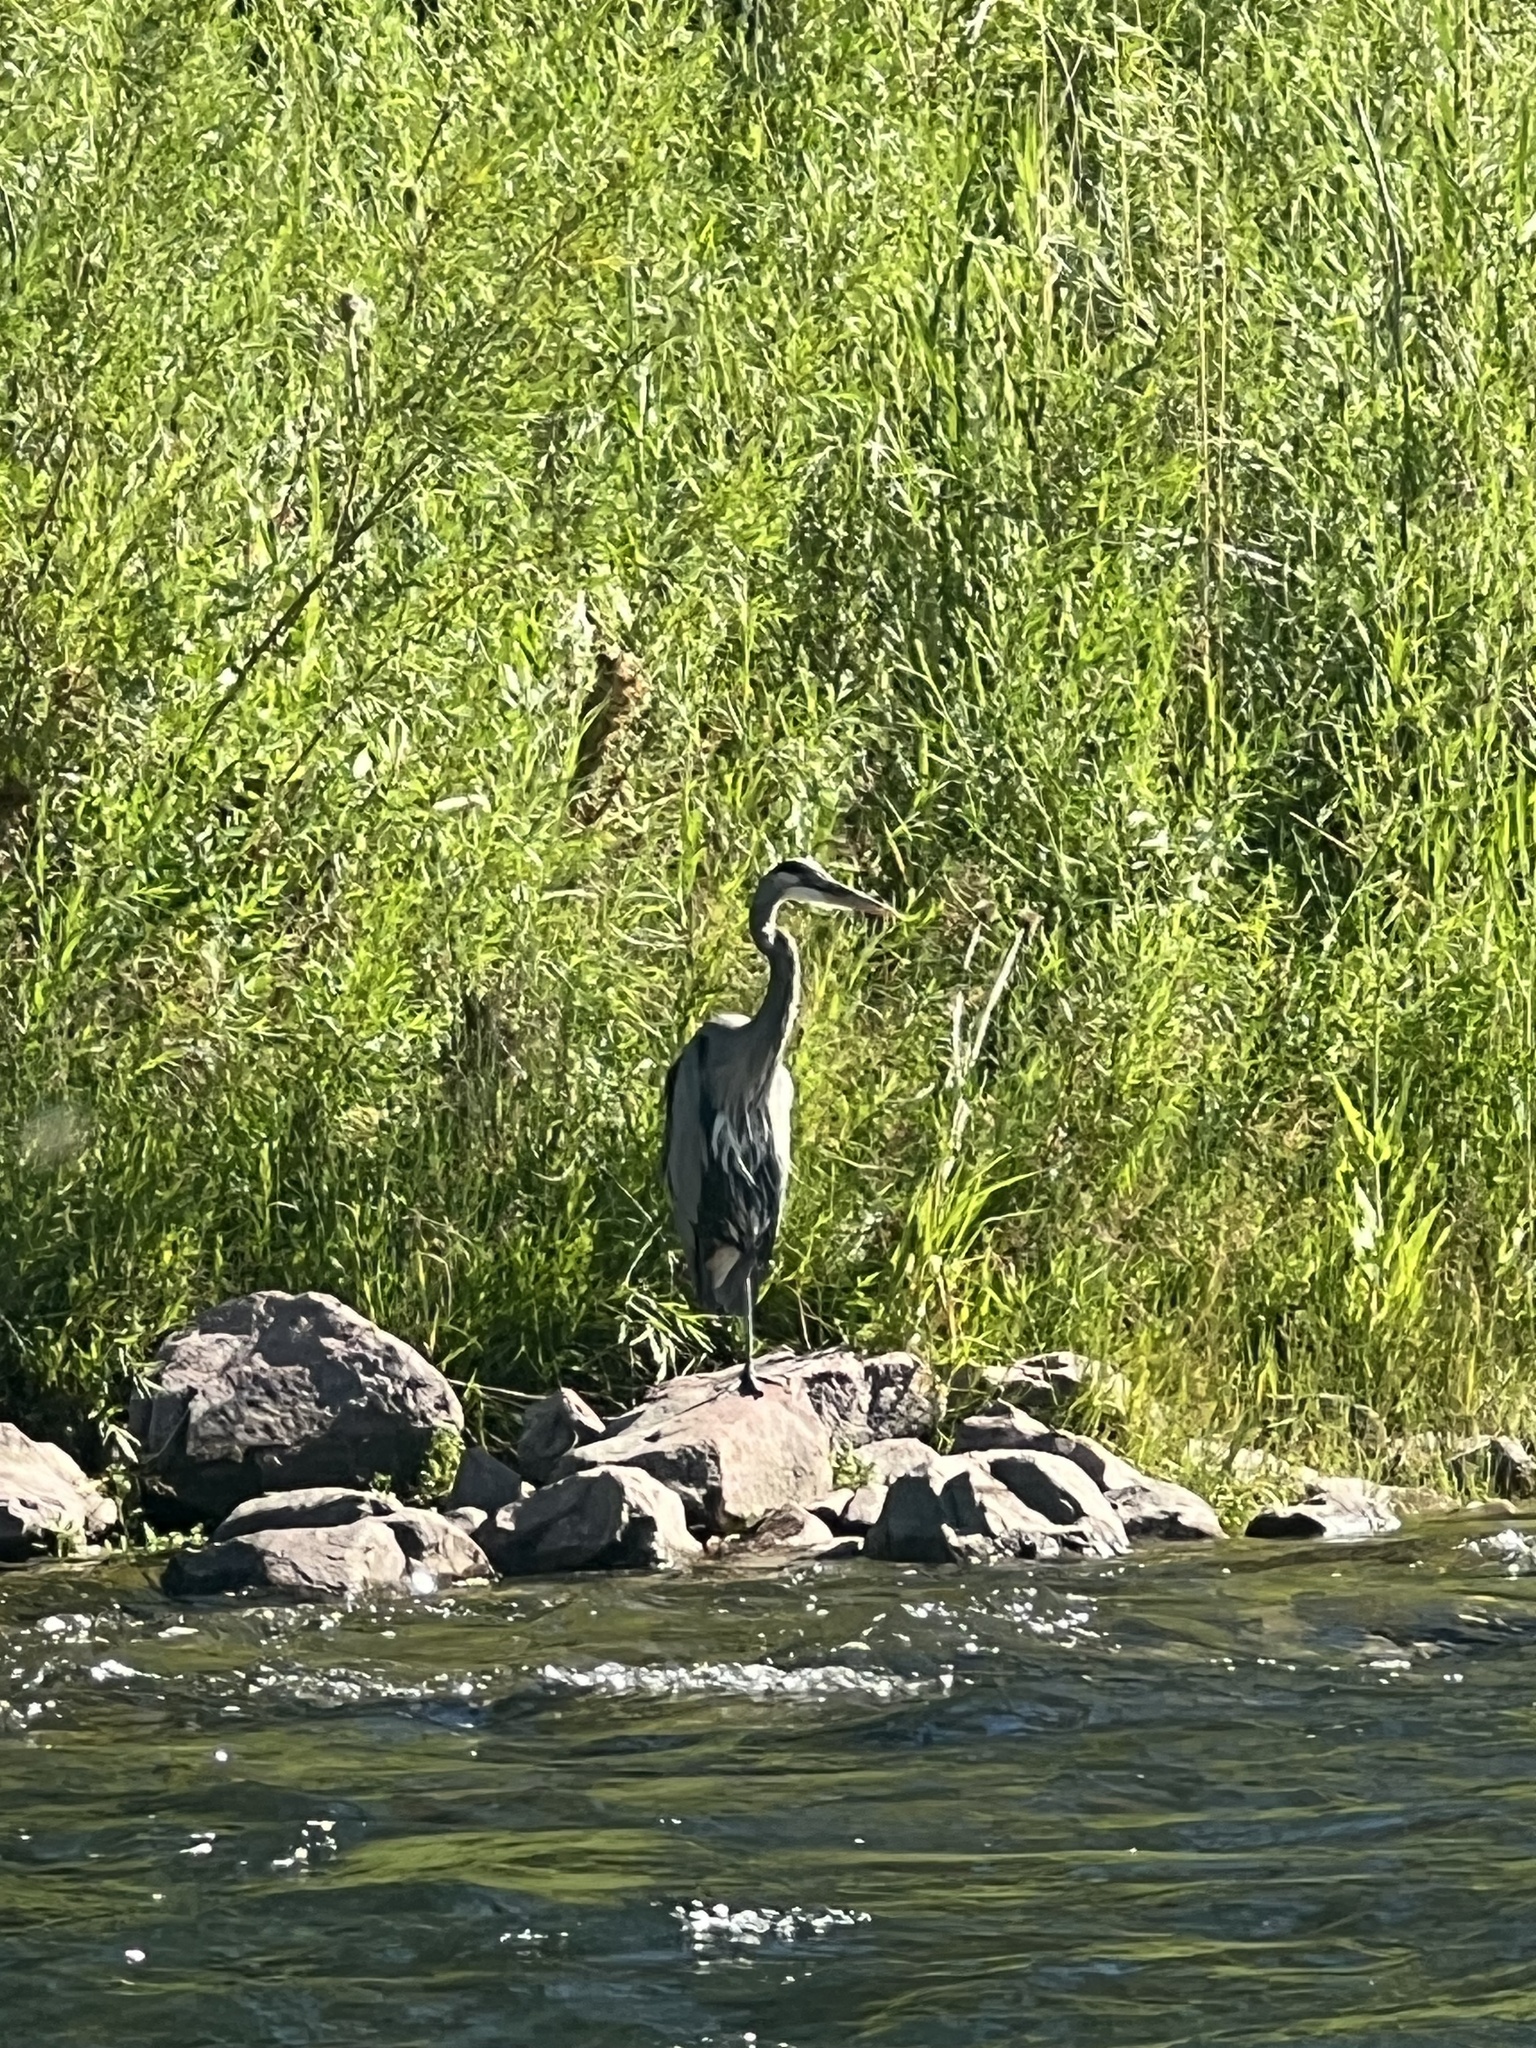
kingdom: Animalia
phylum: Chordata
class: Aves
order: Pelecaniformes
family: Ardeidae
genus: Ardea
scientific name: Ardea herodias
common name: Great blue heron
